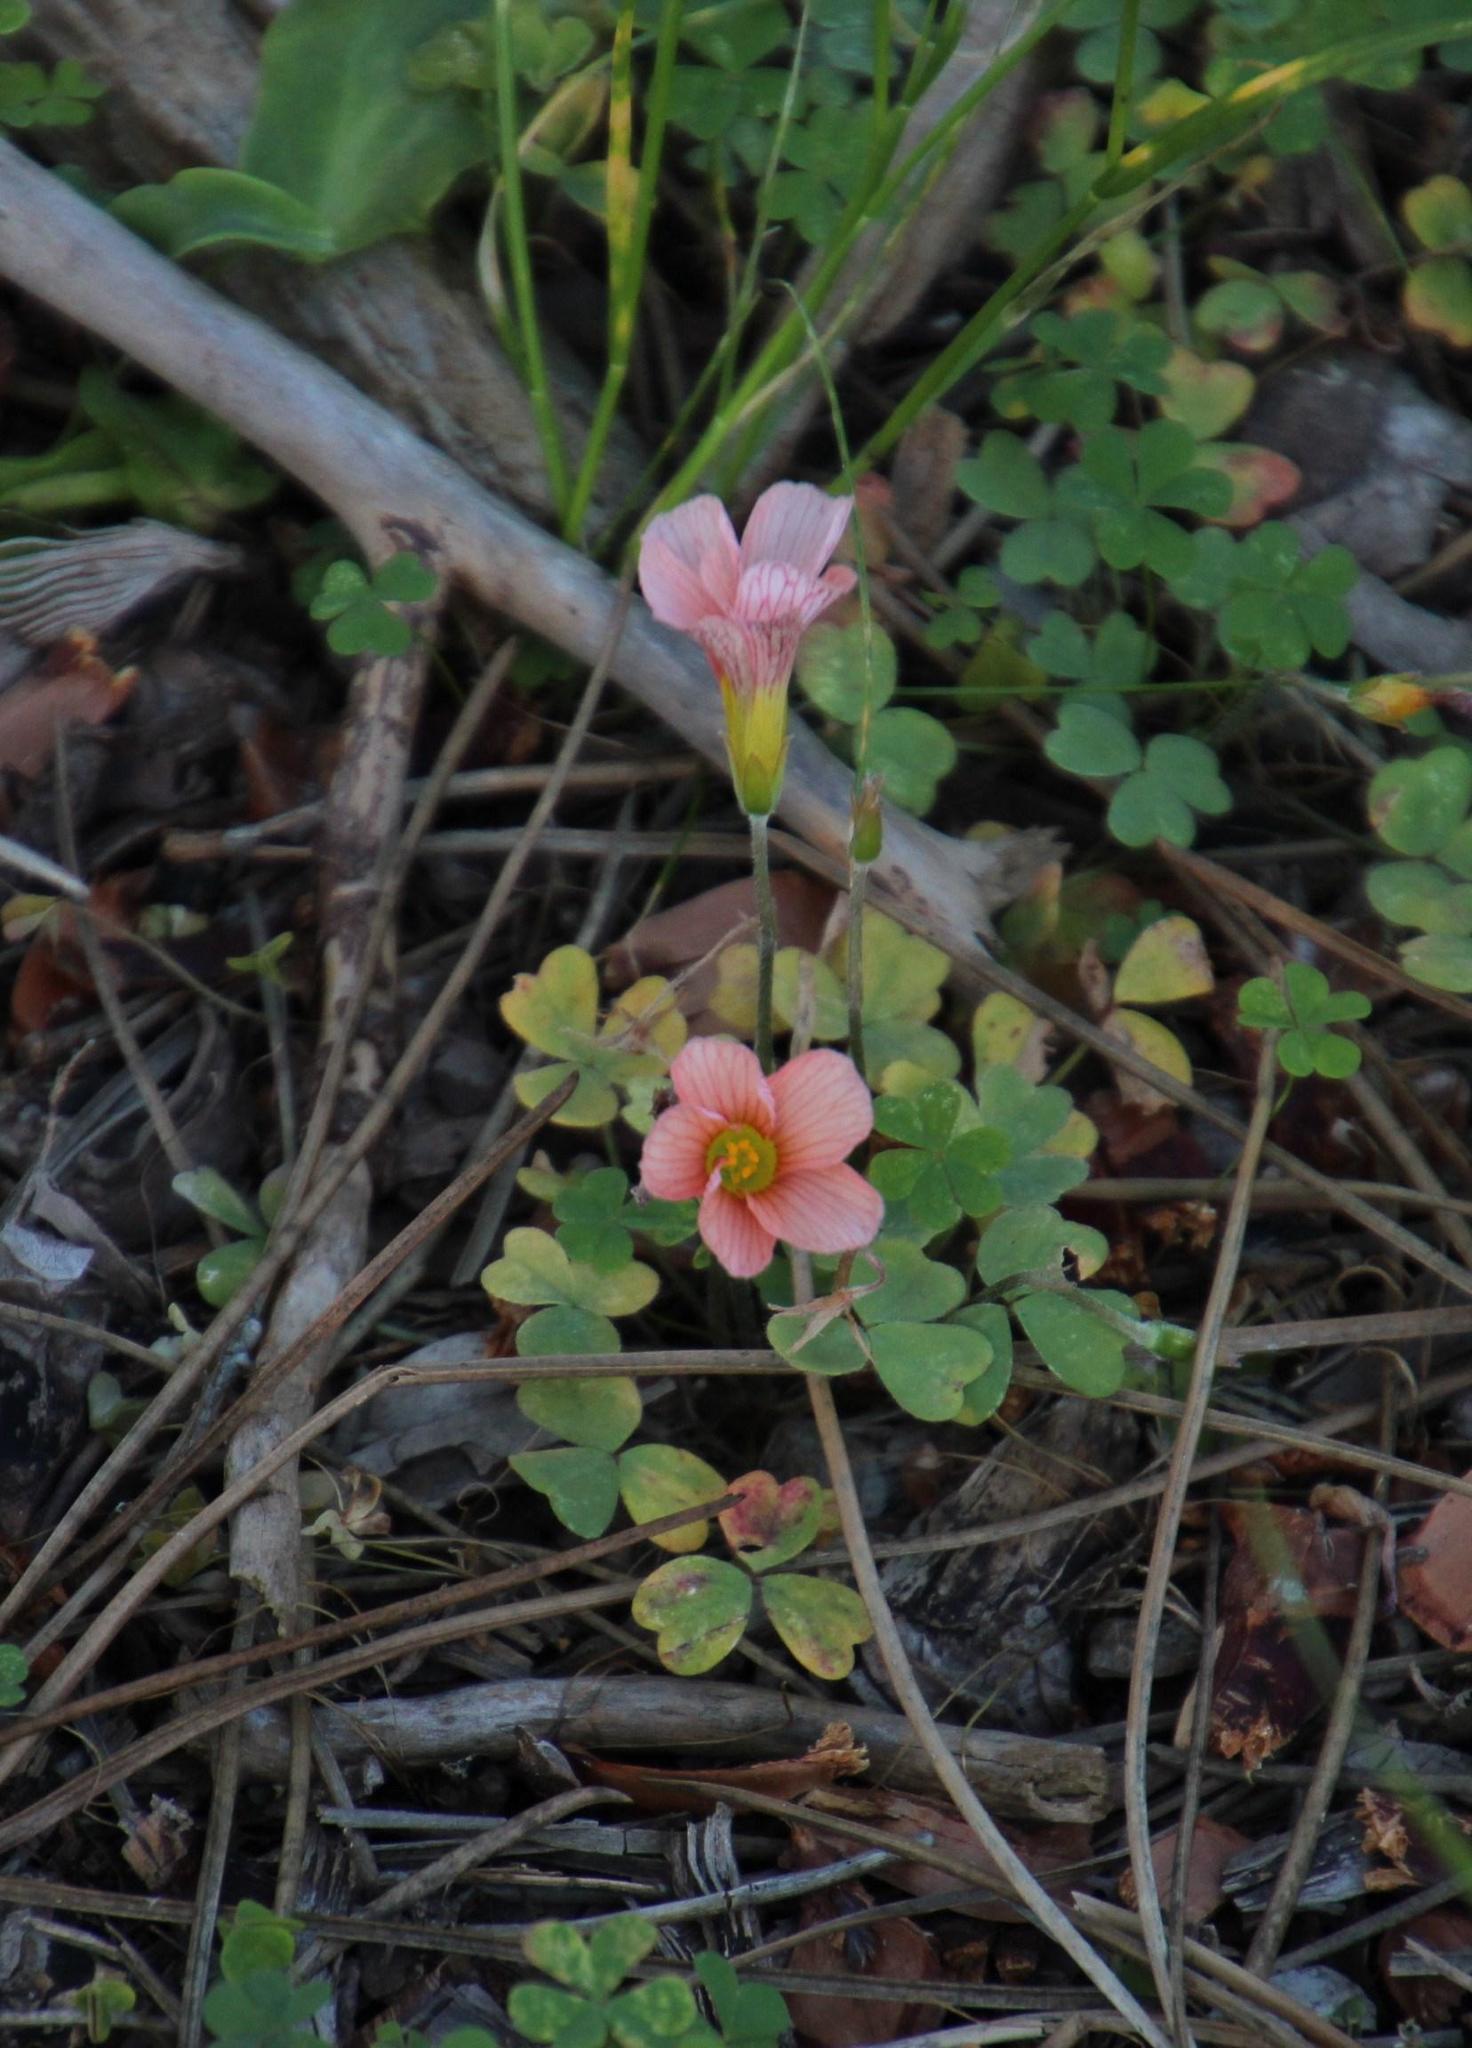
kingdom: Plantae
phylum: Tracheophyta
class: Magnoliopsida
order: Oxalidales
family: Oxalidaceae
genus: Oxalis
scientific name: Oxalis obtusa
